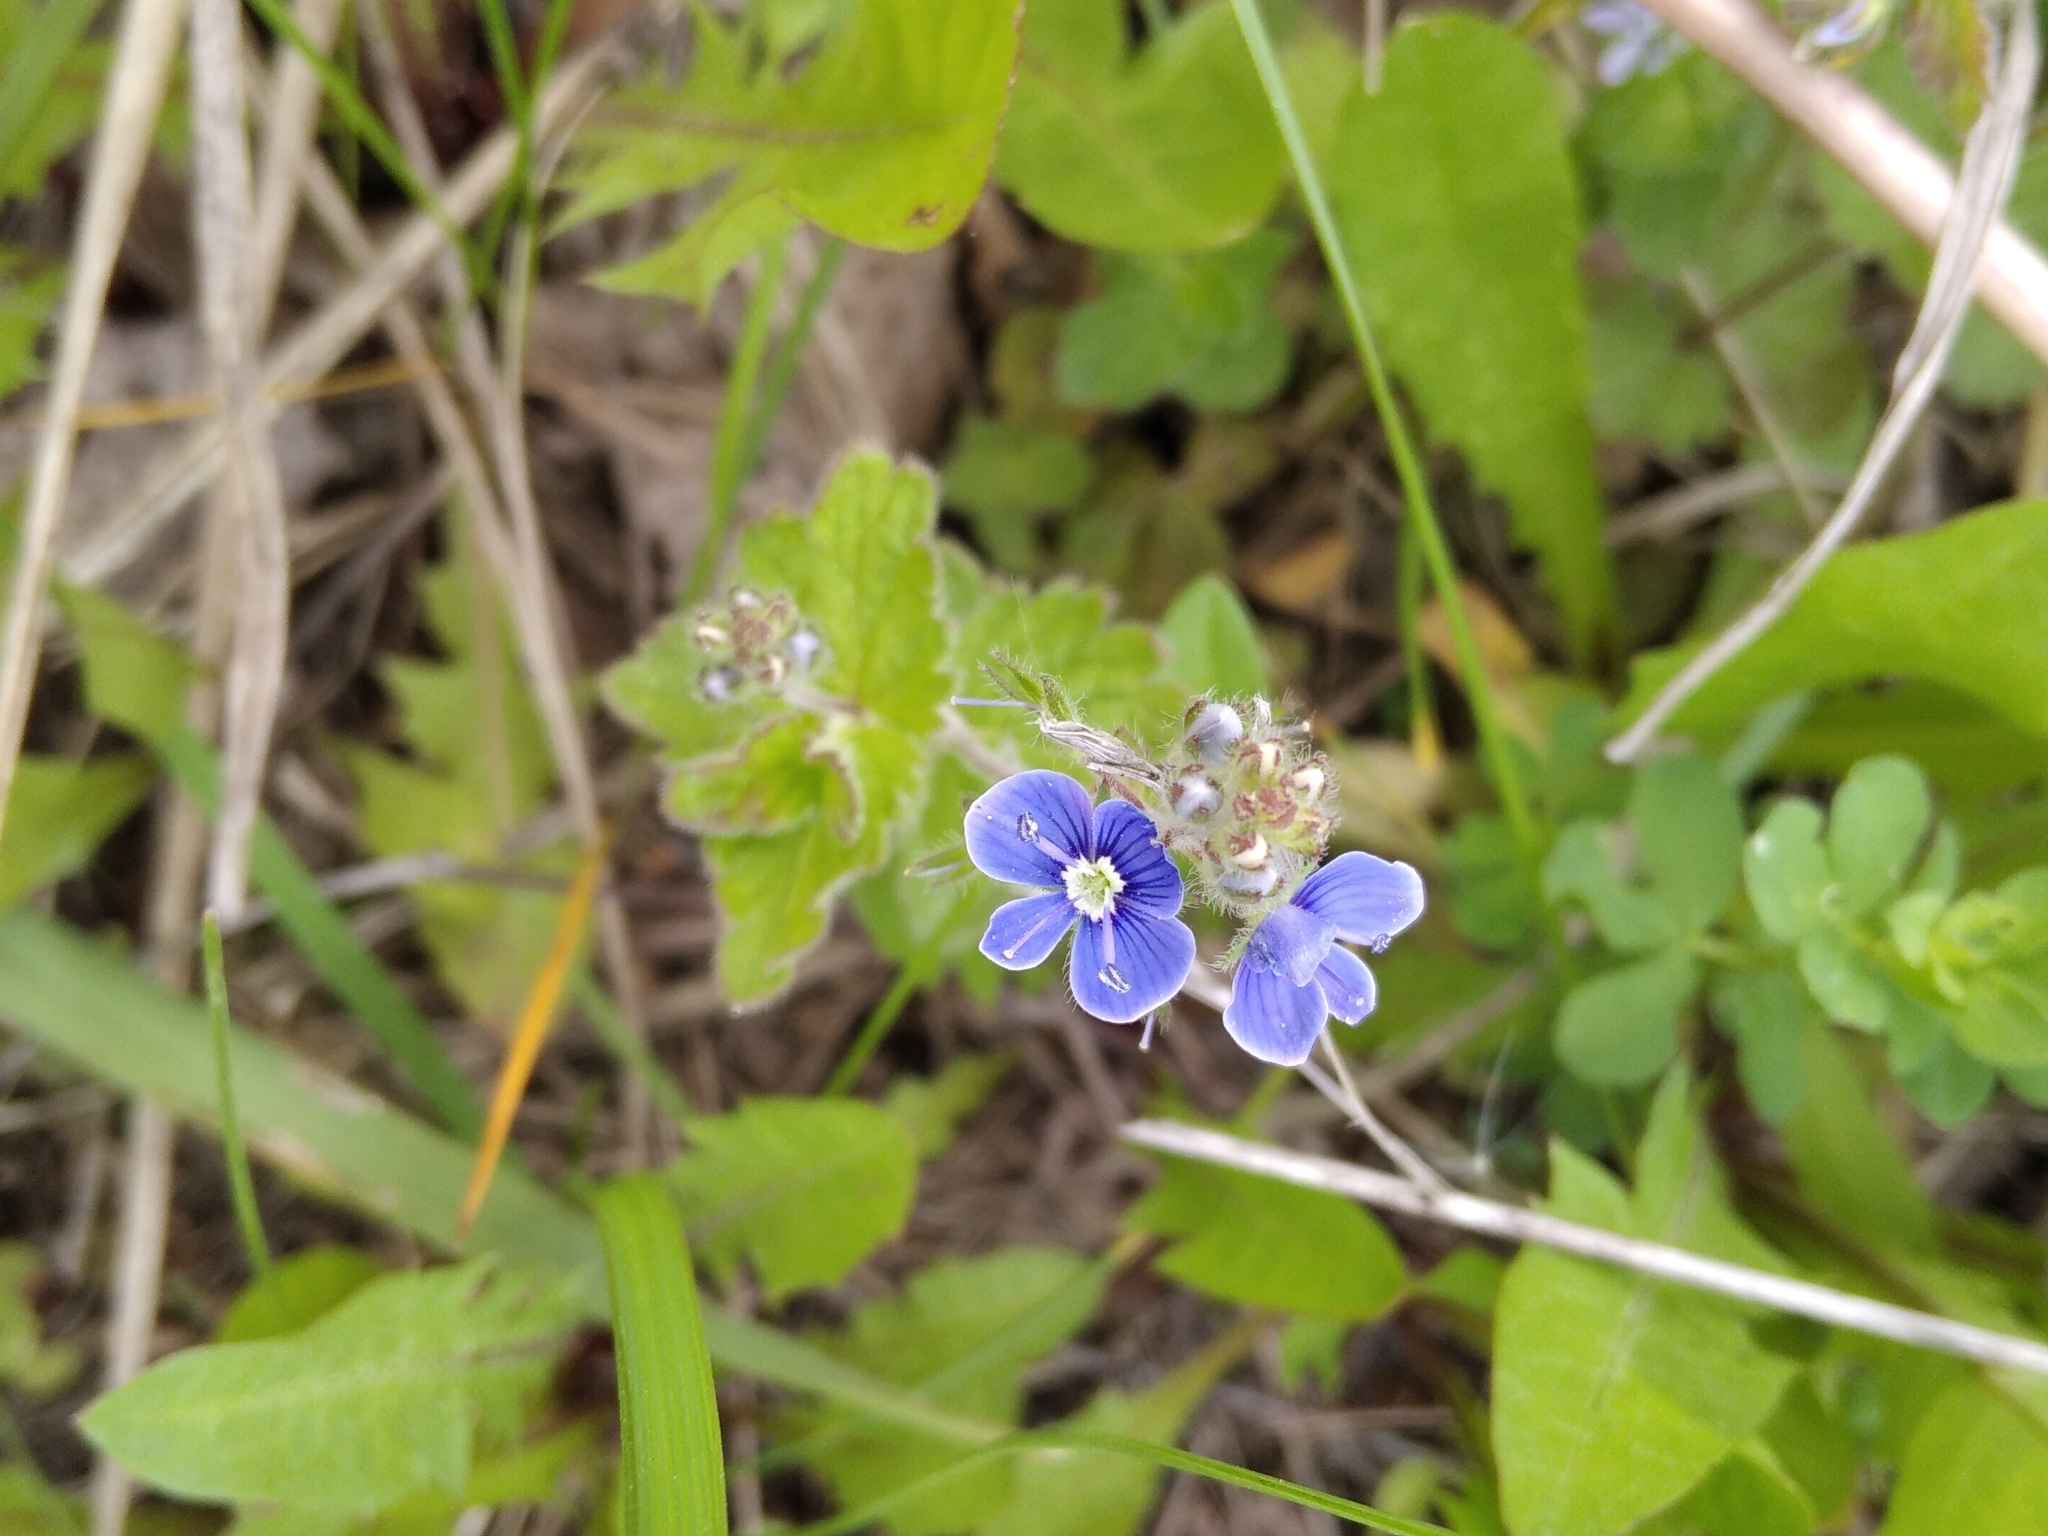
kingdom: Plantae
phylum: Tracheophyta
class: Magnoliopsida
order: Lamiales
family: Plantaginaceae
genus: Veronica
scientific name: Veronica chamaedrys
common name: Germander speedwell
